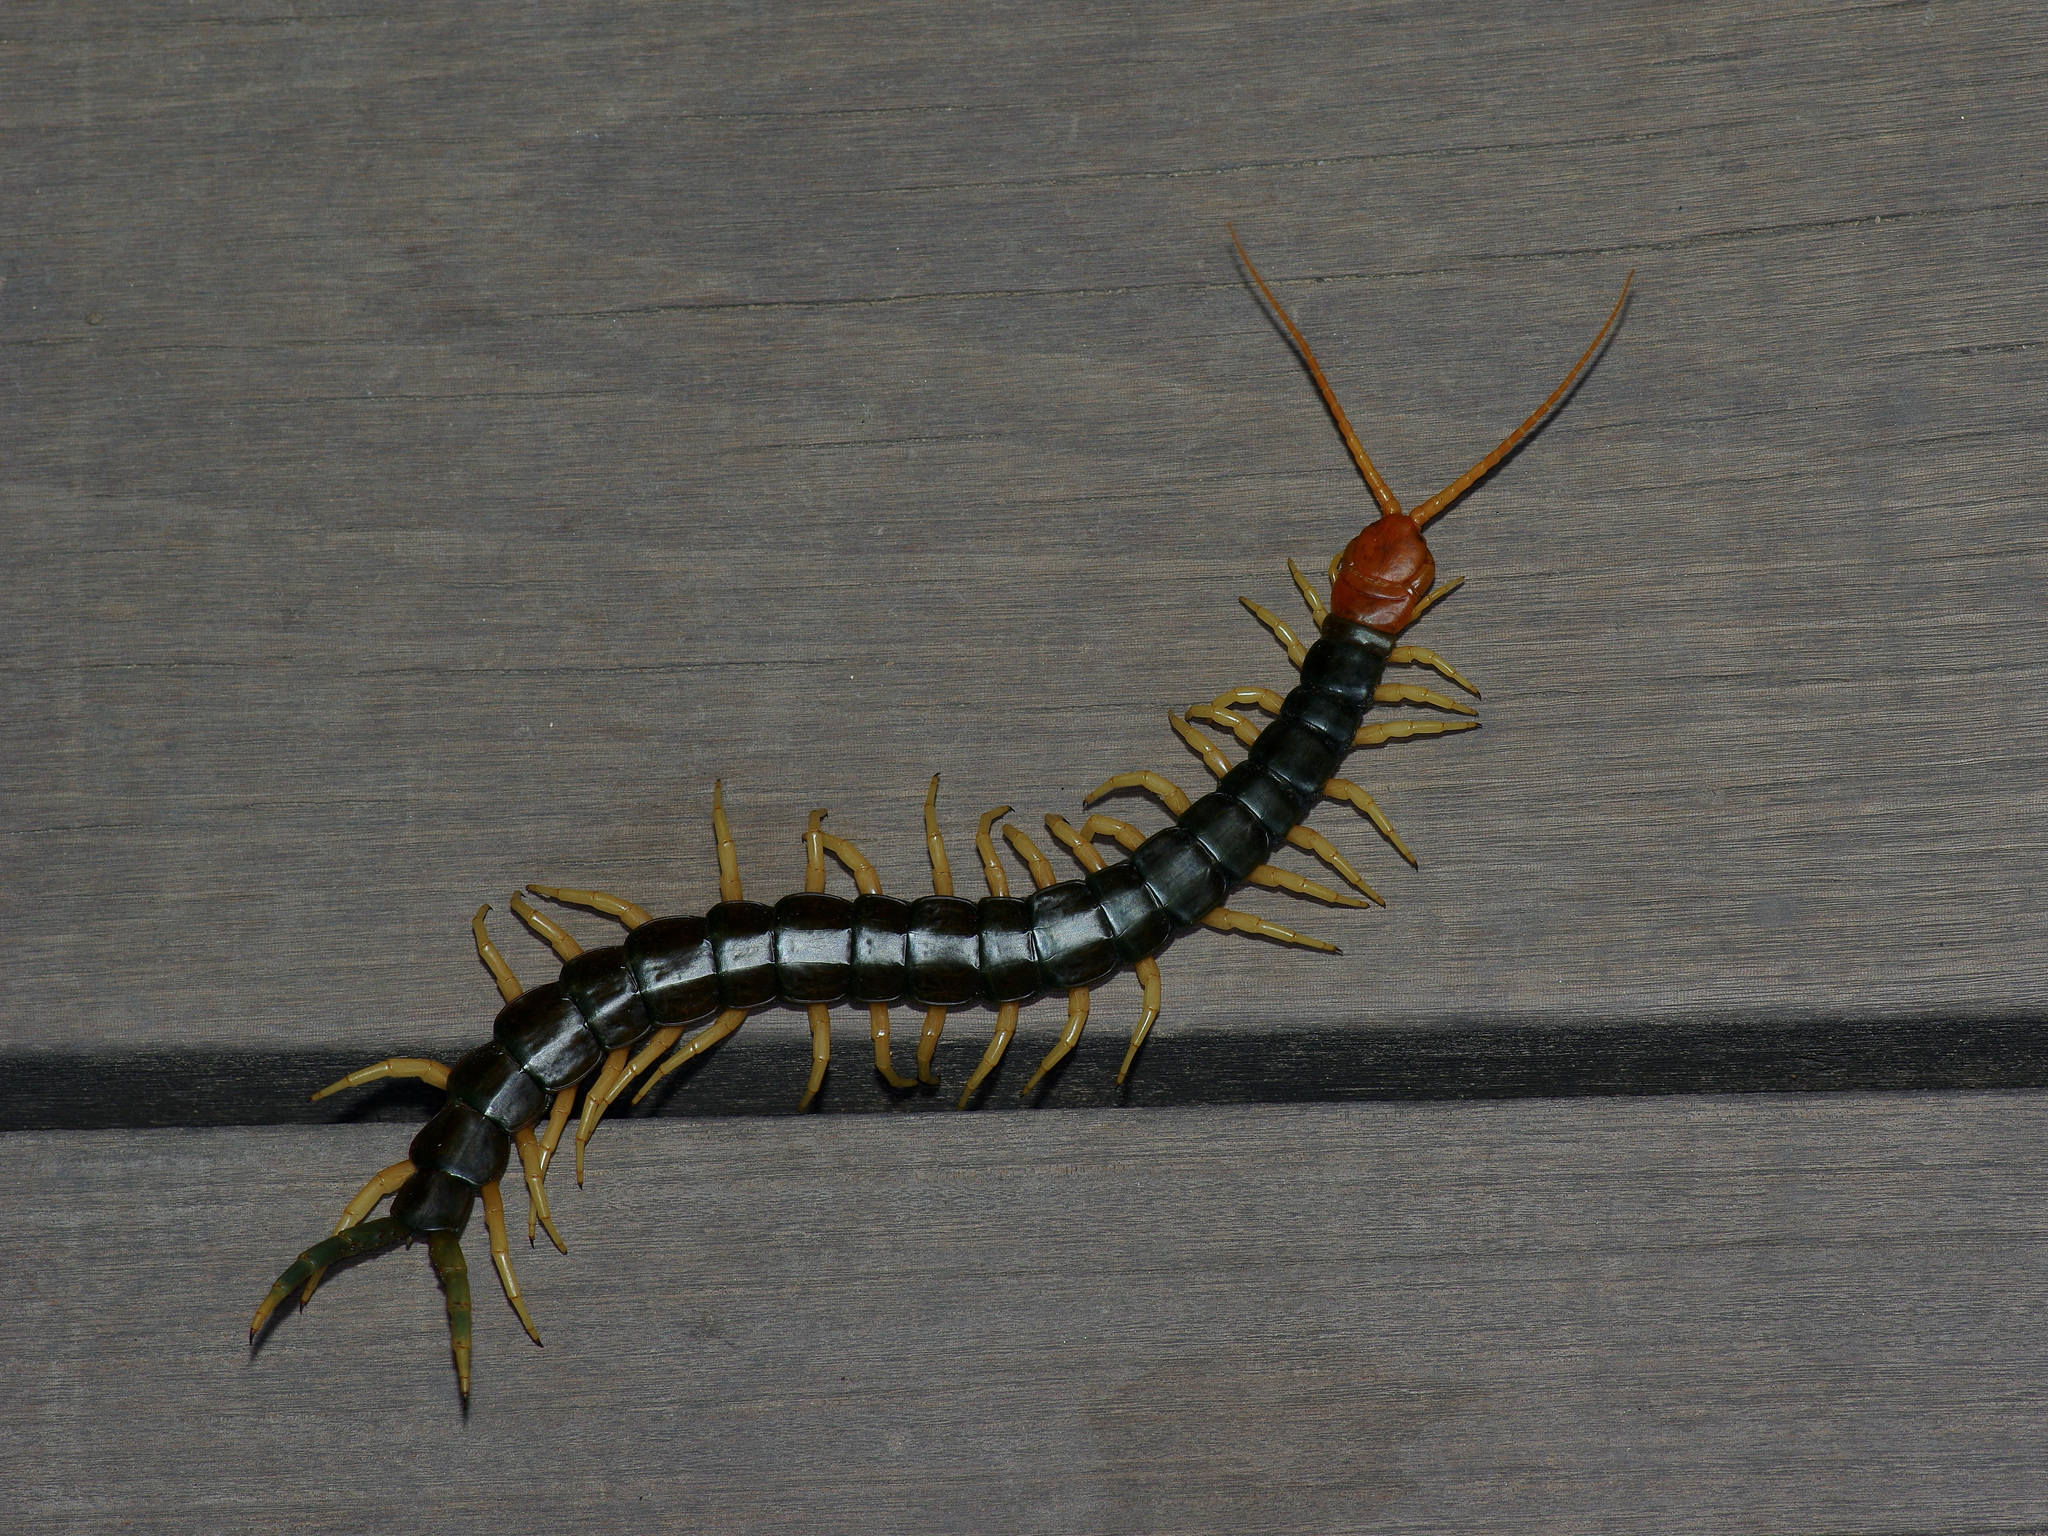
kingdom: Animalia
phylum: Arthropoda
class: Chilopoda
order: Scolopendromorpha
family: Scolopendridae
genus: Scolopendra
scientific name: Scolopendra heros
